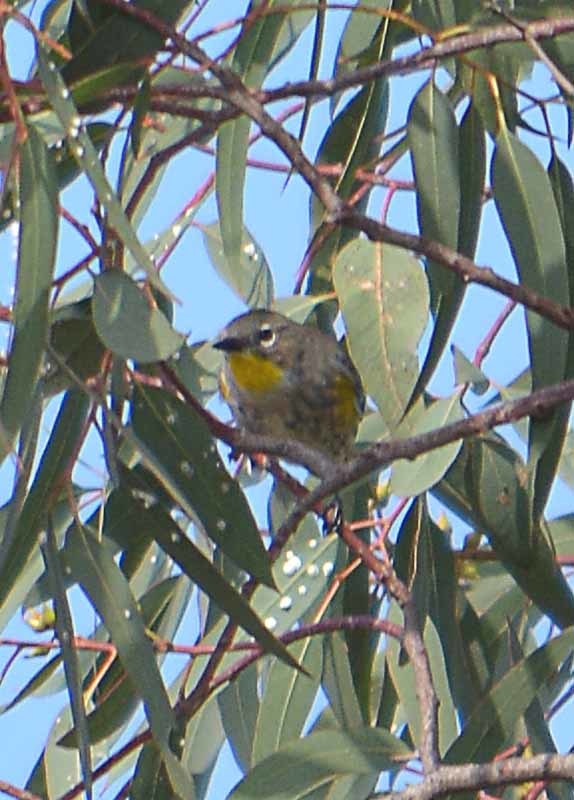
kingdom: Animalia
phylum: Chordata
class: Aves
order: Passeriformes
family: Parulidae
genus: Setophaga
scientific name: Setophaga coronata
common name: Myrtle warbler
